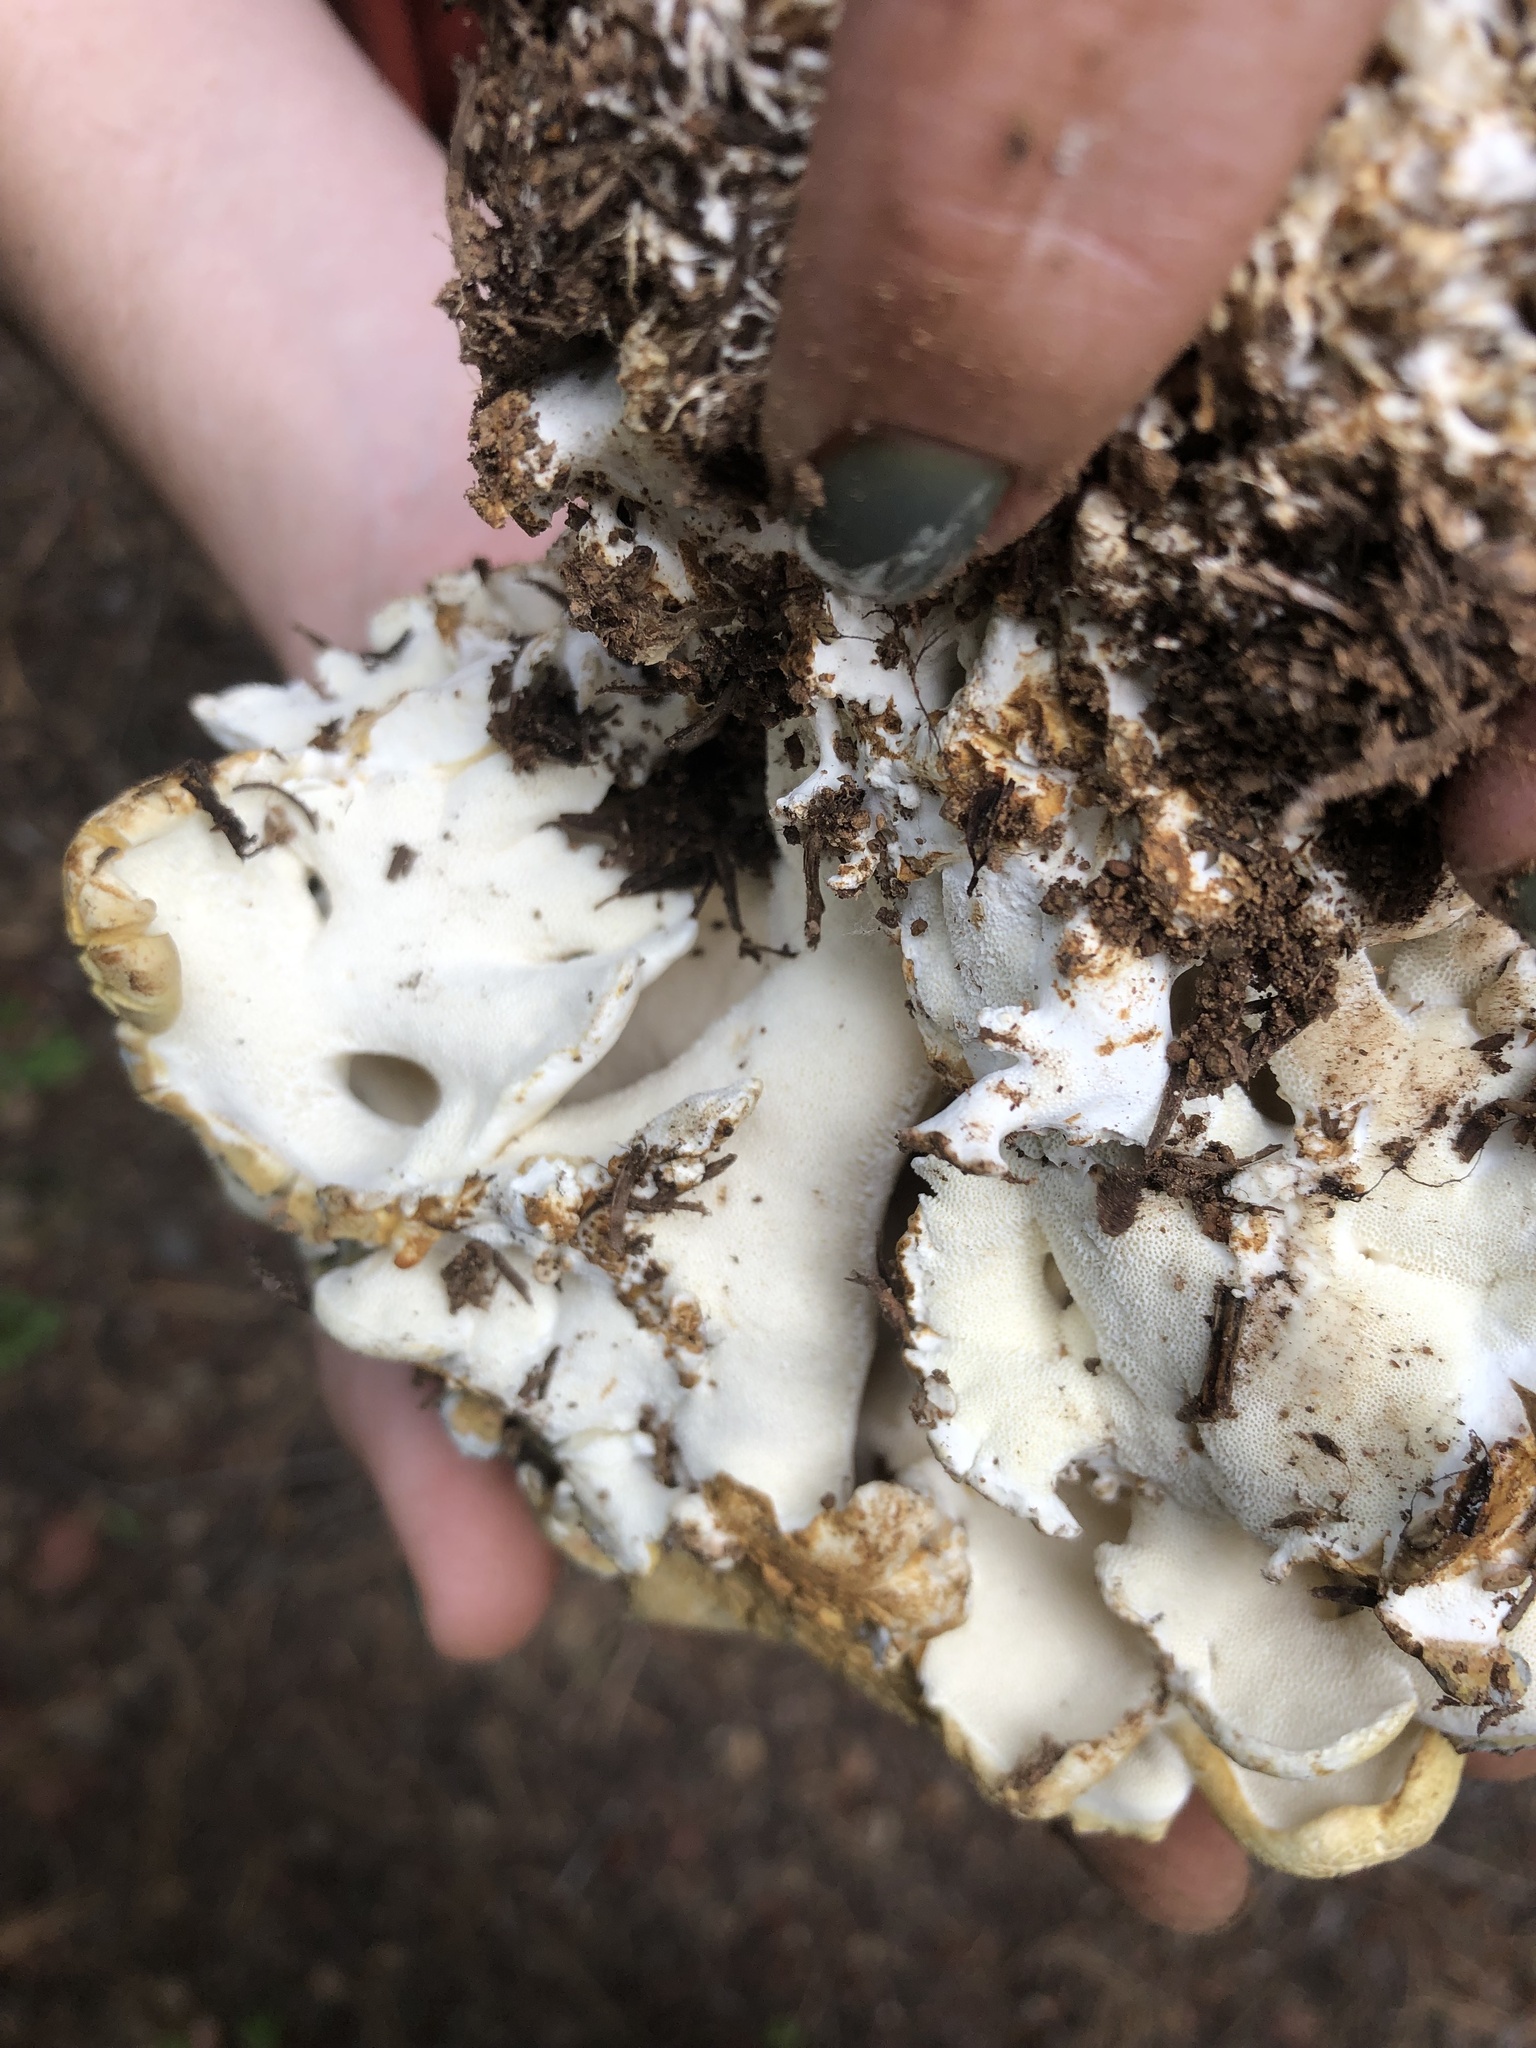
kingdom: Fungi
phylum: Basidiomycota
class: Agaricomycetes
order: Russulales
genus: Polypus
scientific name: Polypus dispansus
